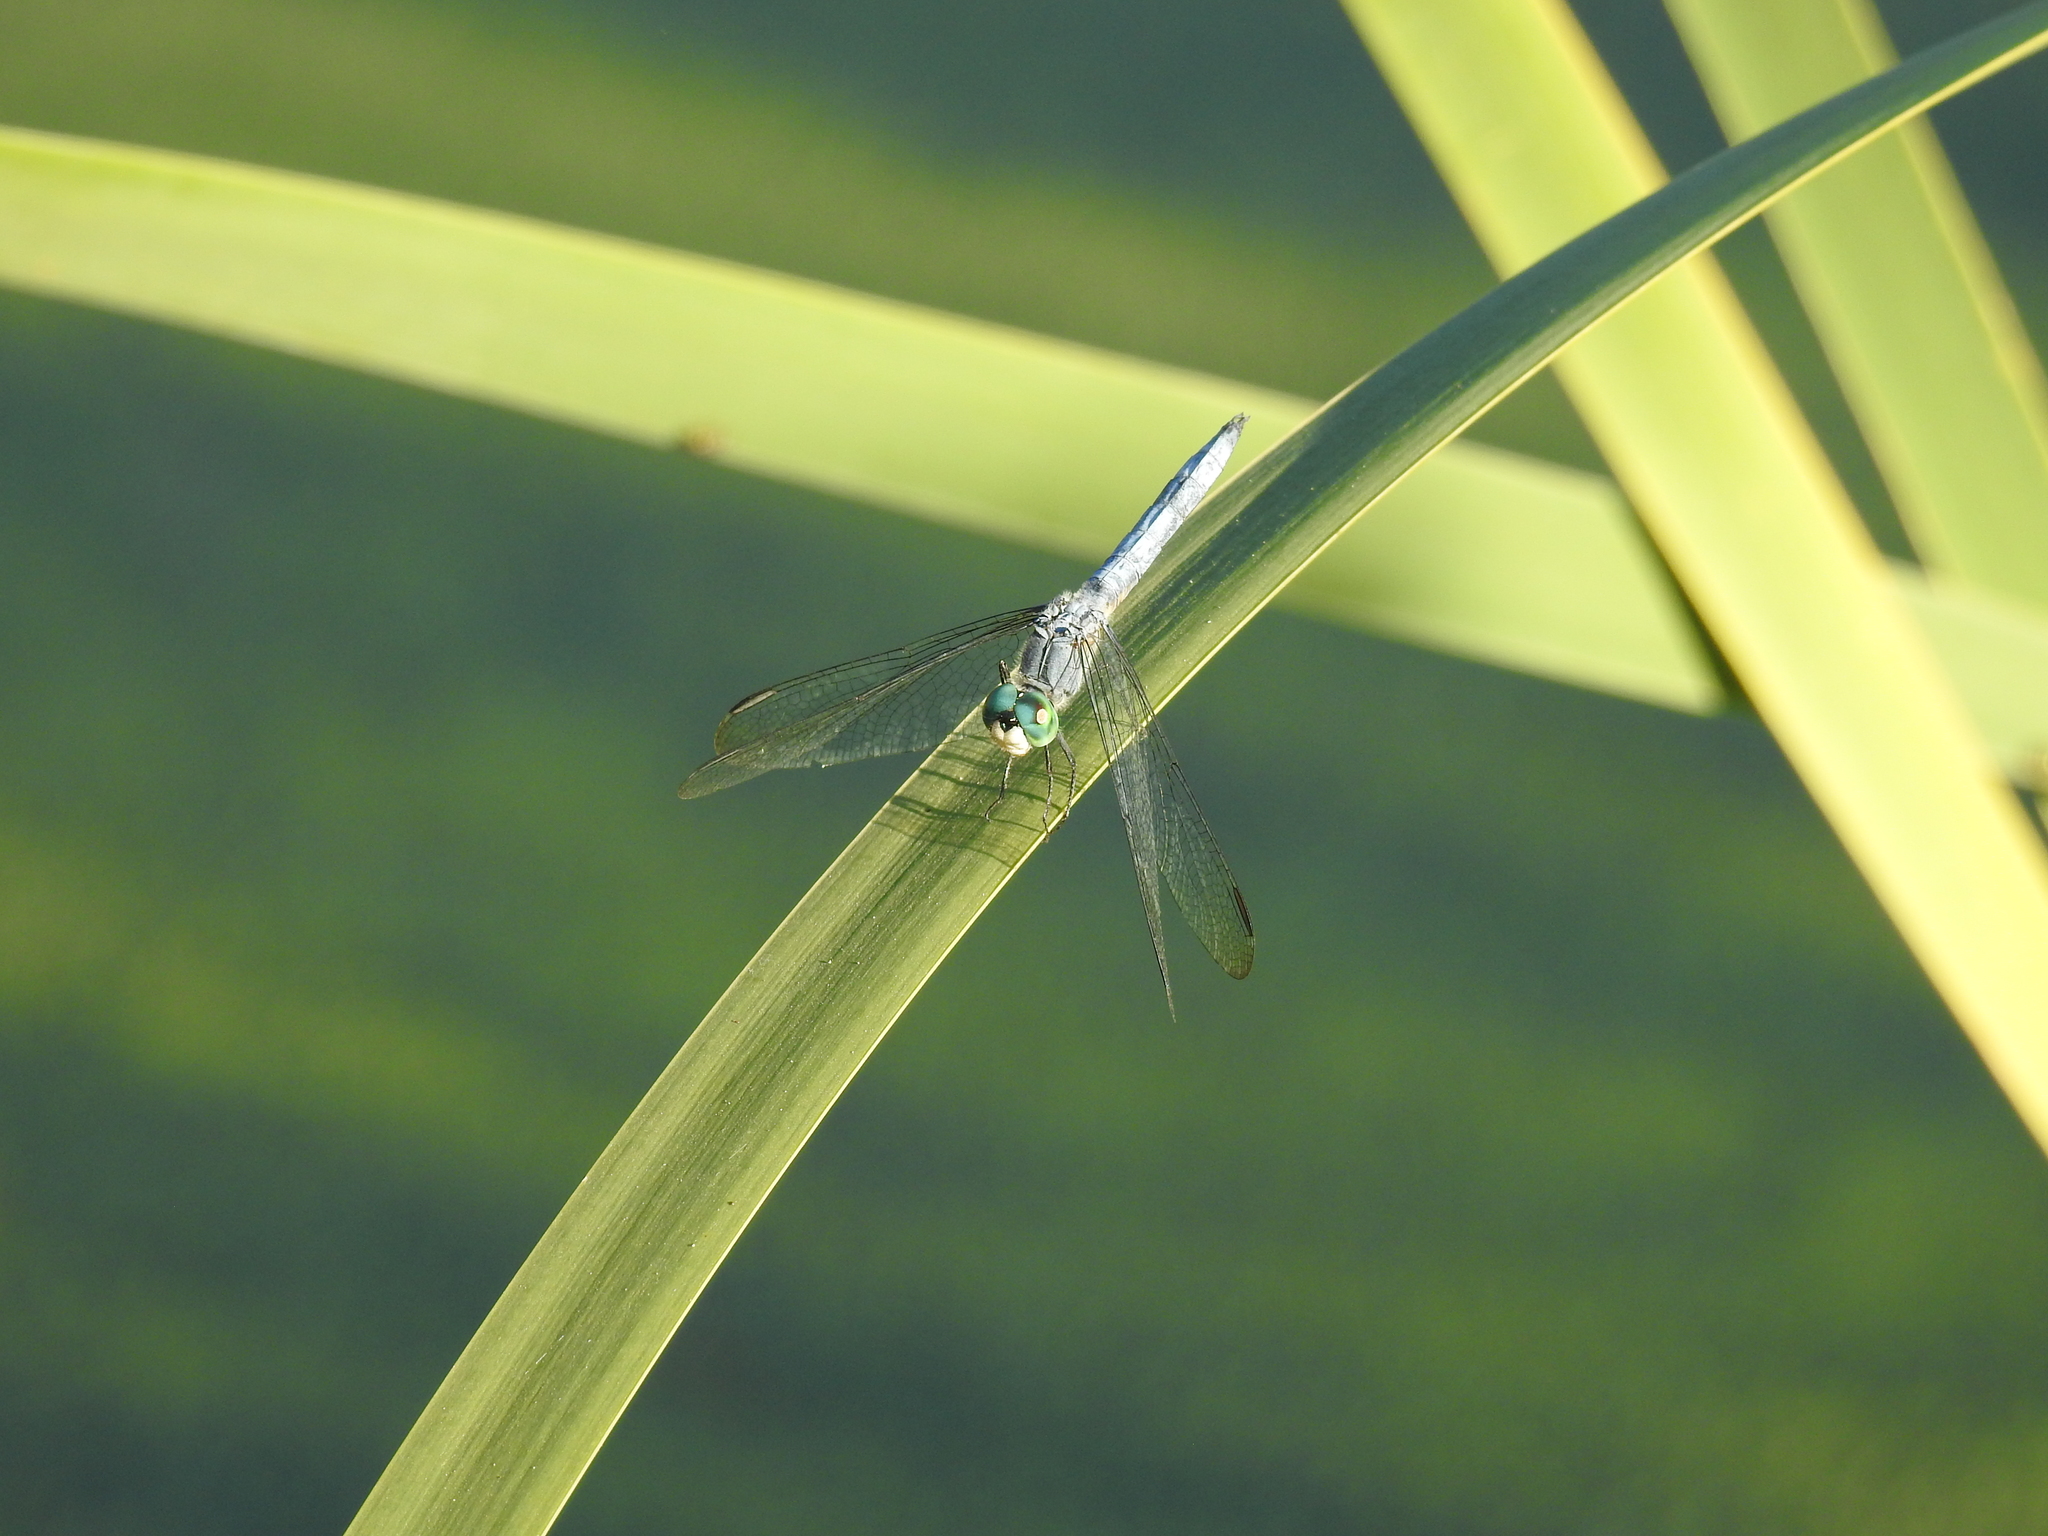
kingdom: Animalia
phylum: Arthropoda
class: Insecta
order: Odonata
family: Libellulidae
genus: Pachydiplax
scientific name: Pachydiplax longipennis
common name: Blue dasher
